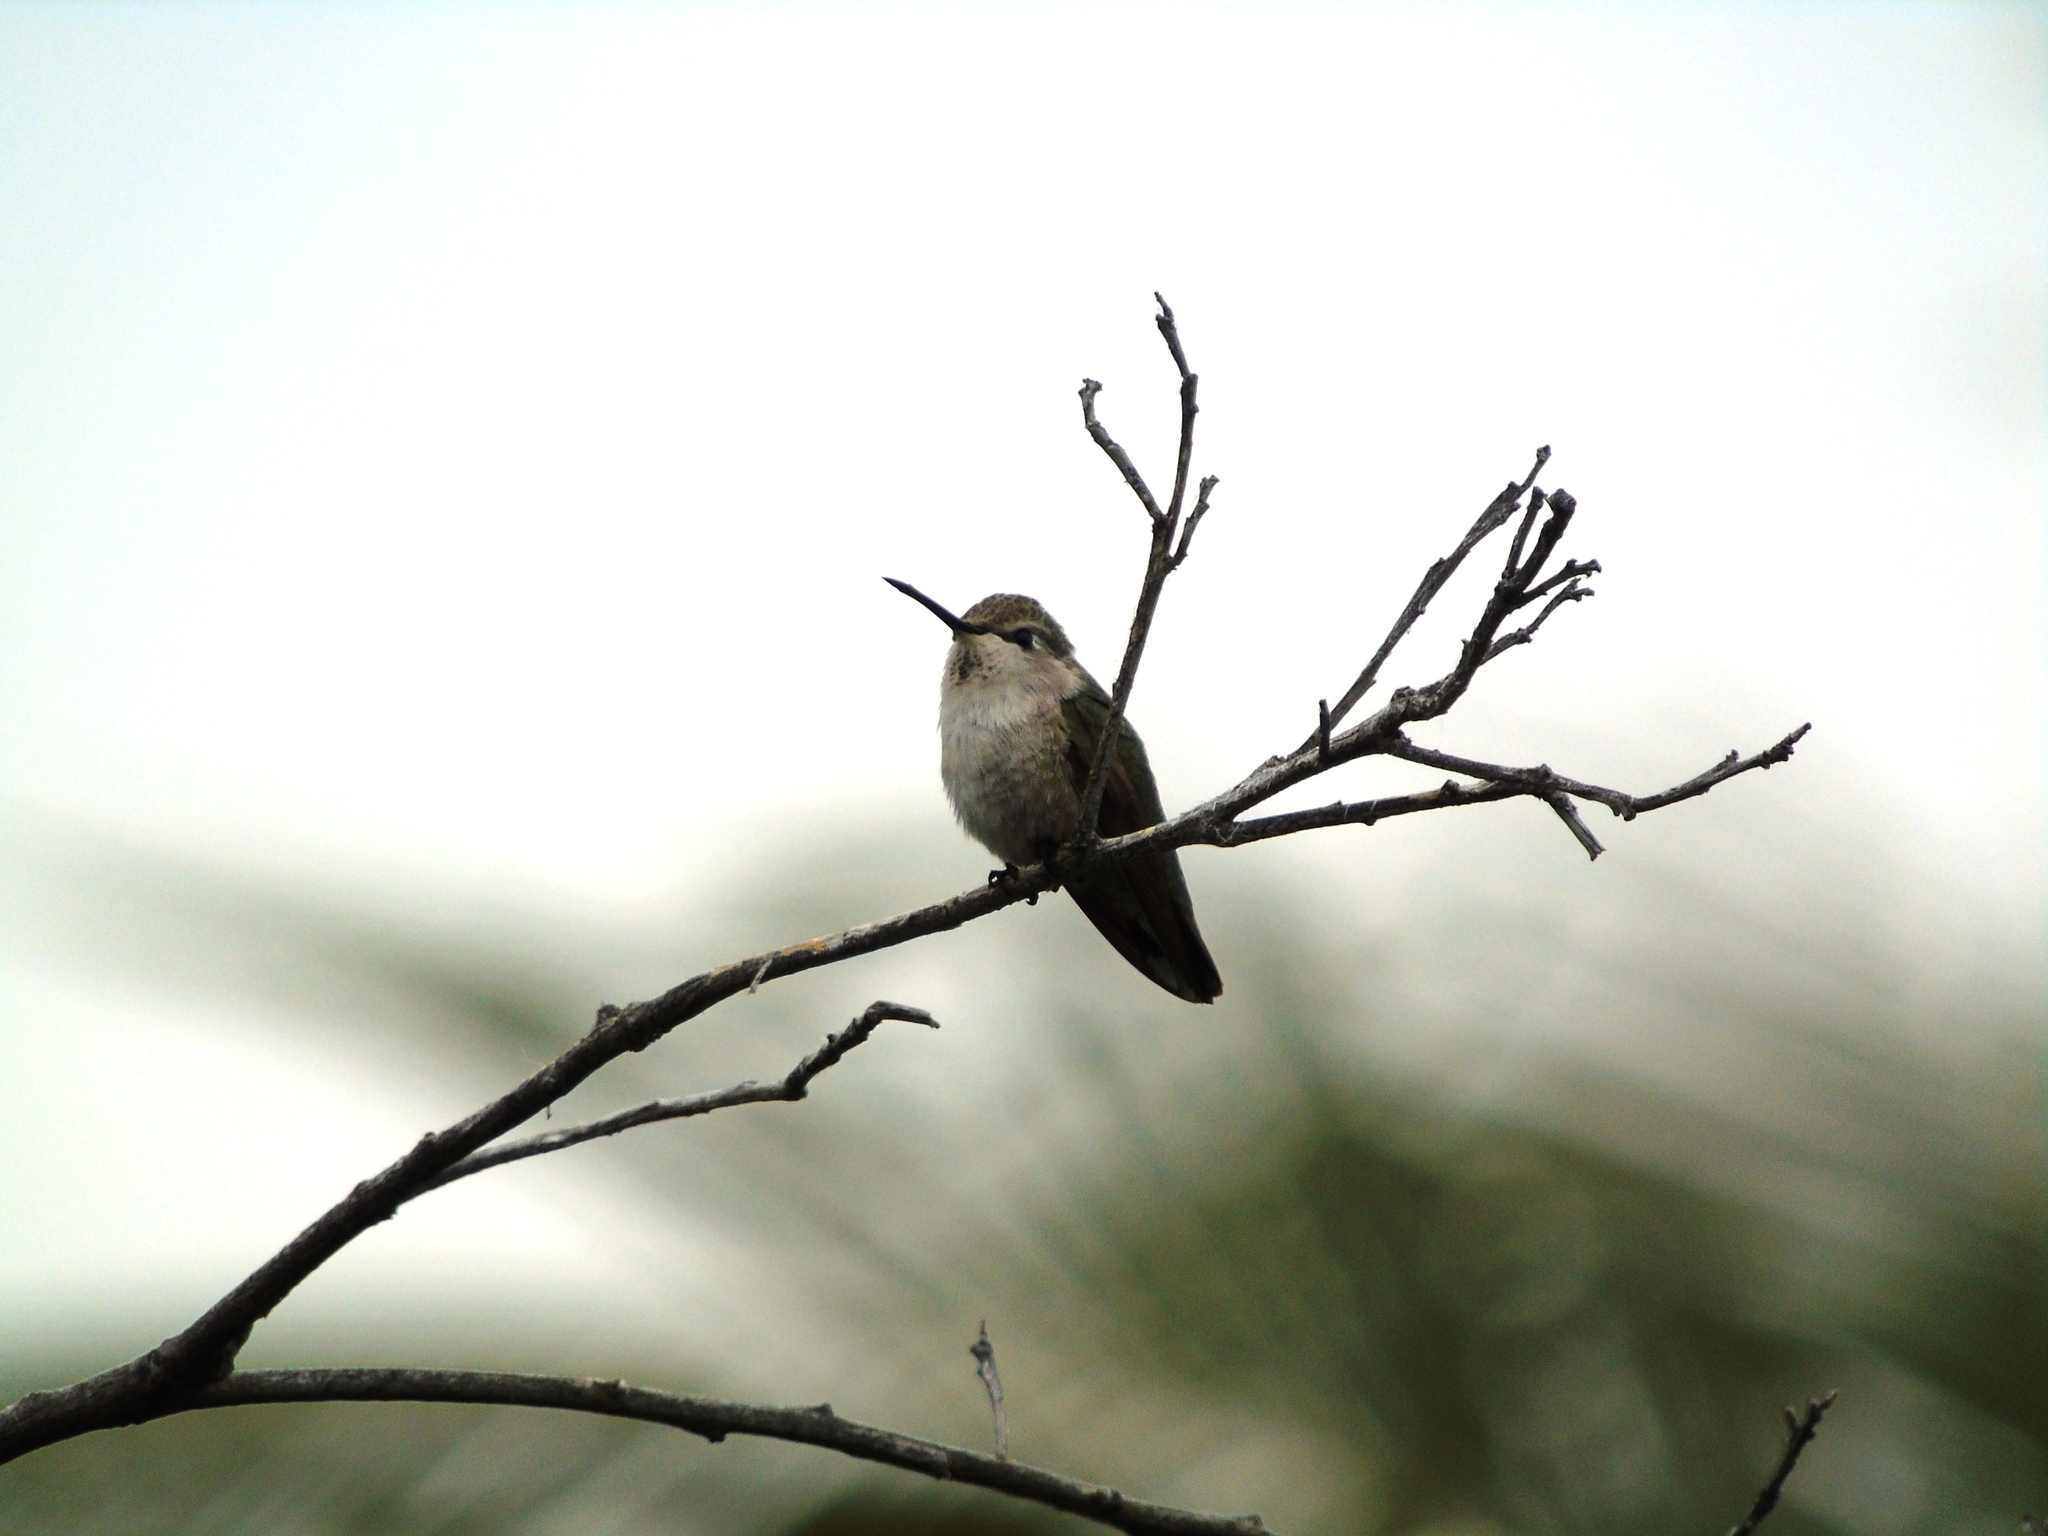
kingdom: Animalia
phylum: Chordata
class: Aves
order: Apodiformes
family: Trochilidae
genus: Calypte
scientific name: Calypte costae
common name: Costa's hummingbird
